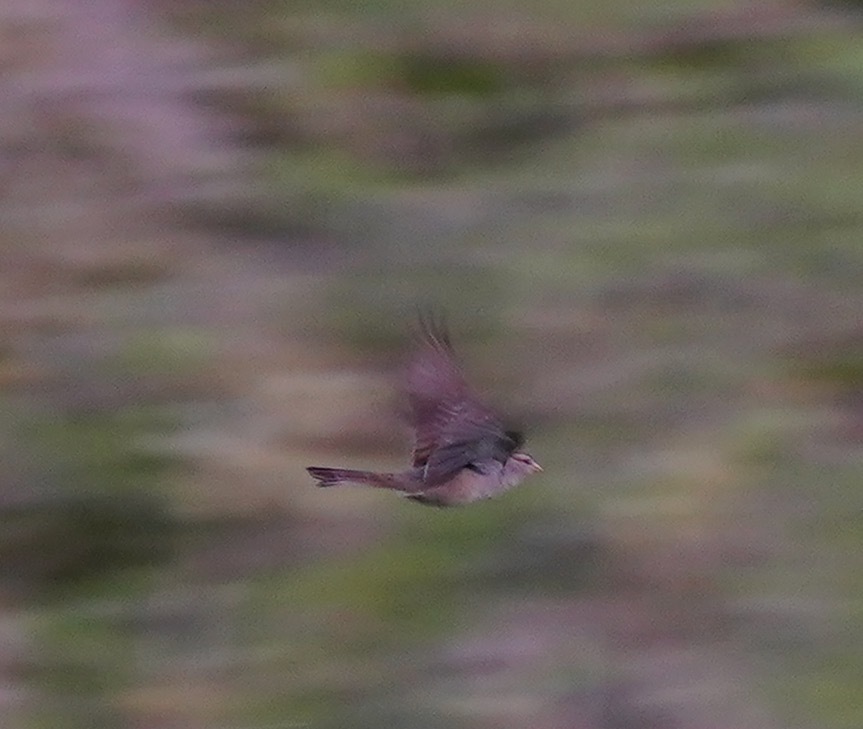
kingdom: Animalia
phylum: Chordata
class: Aves
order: Passeriformes
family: Passerellidae
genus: Zonotrichia
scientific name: Zonotrichia leucophrys
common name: White-crowned sparrow
